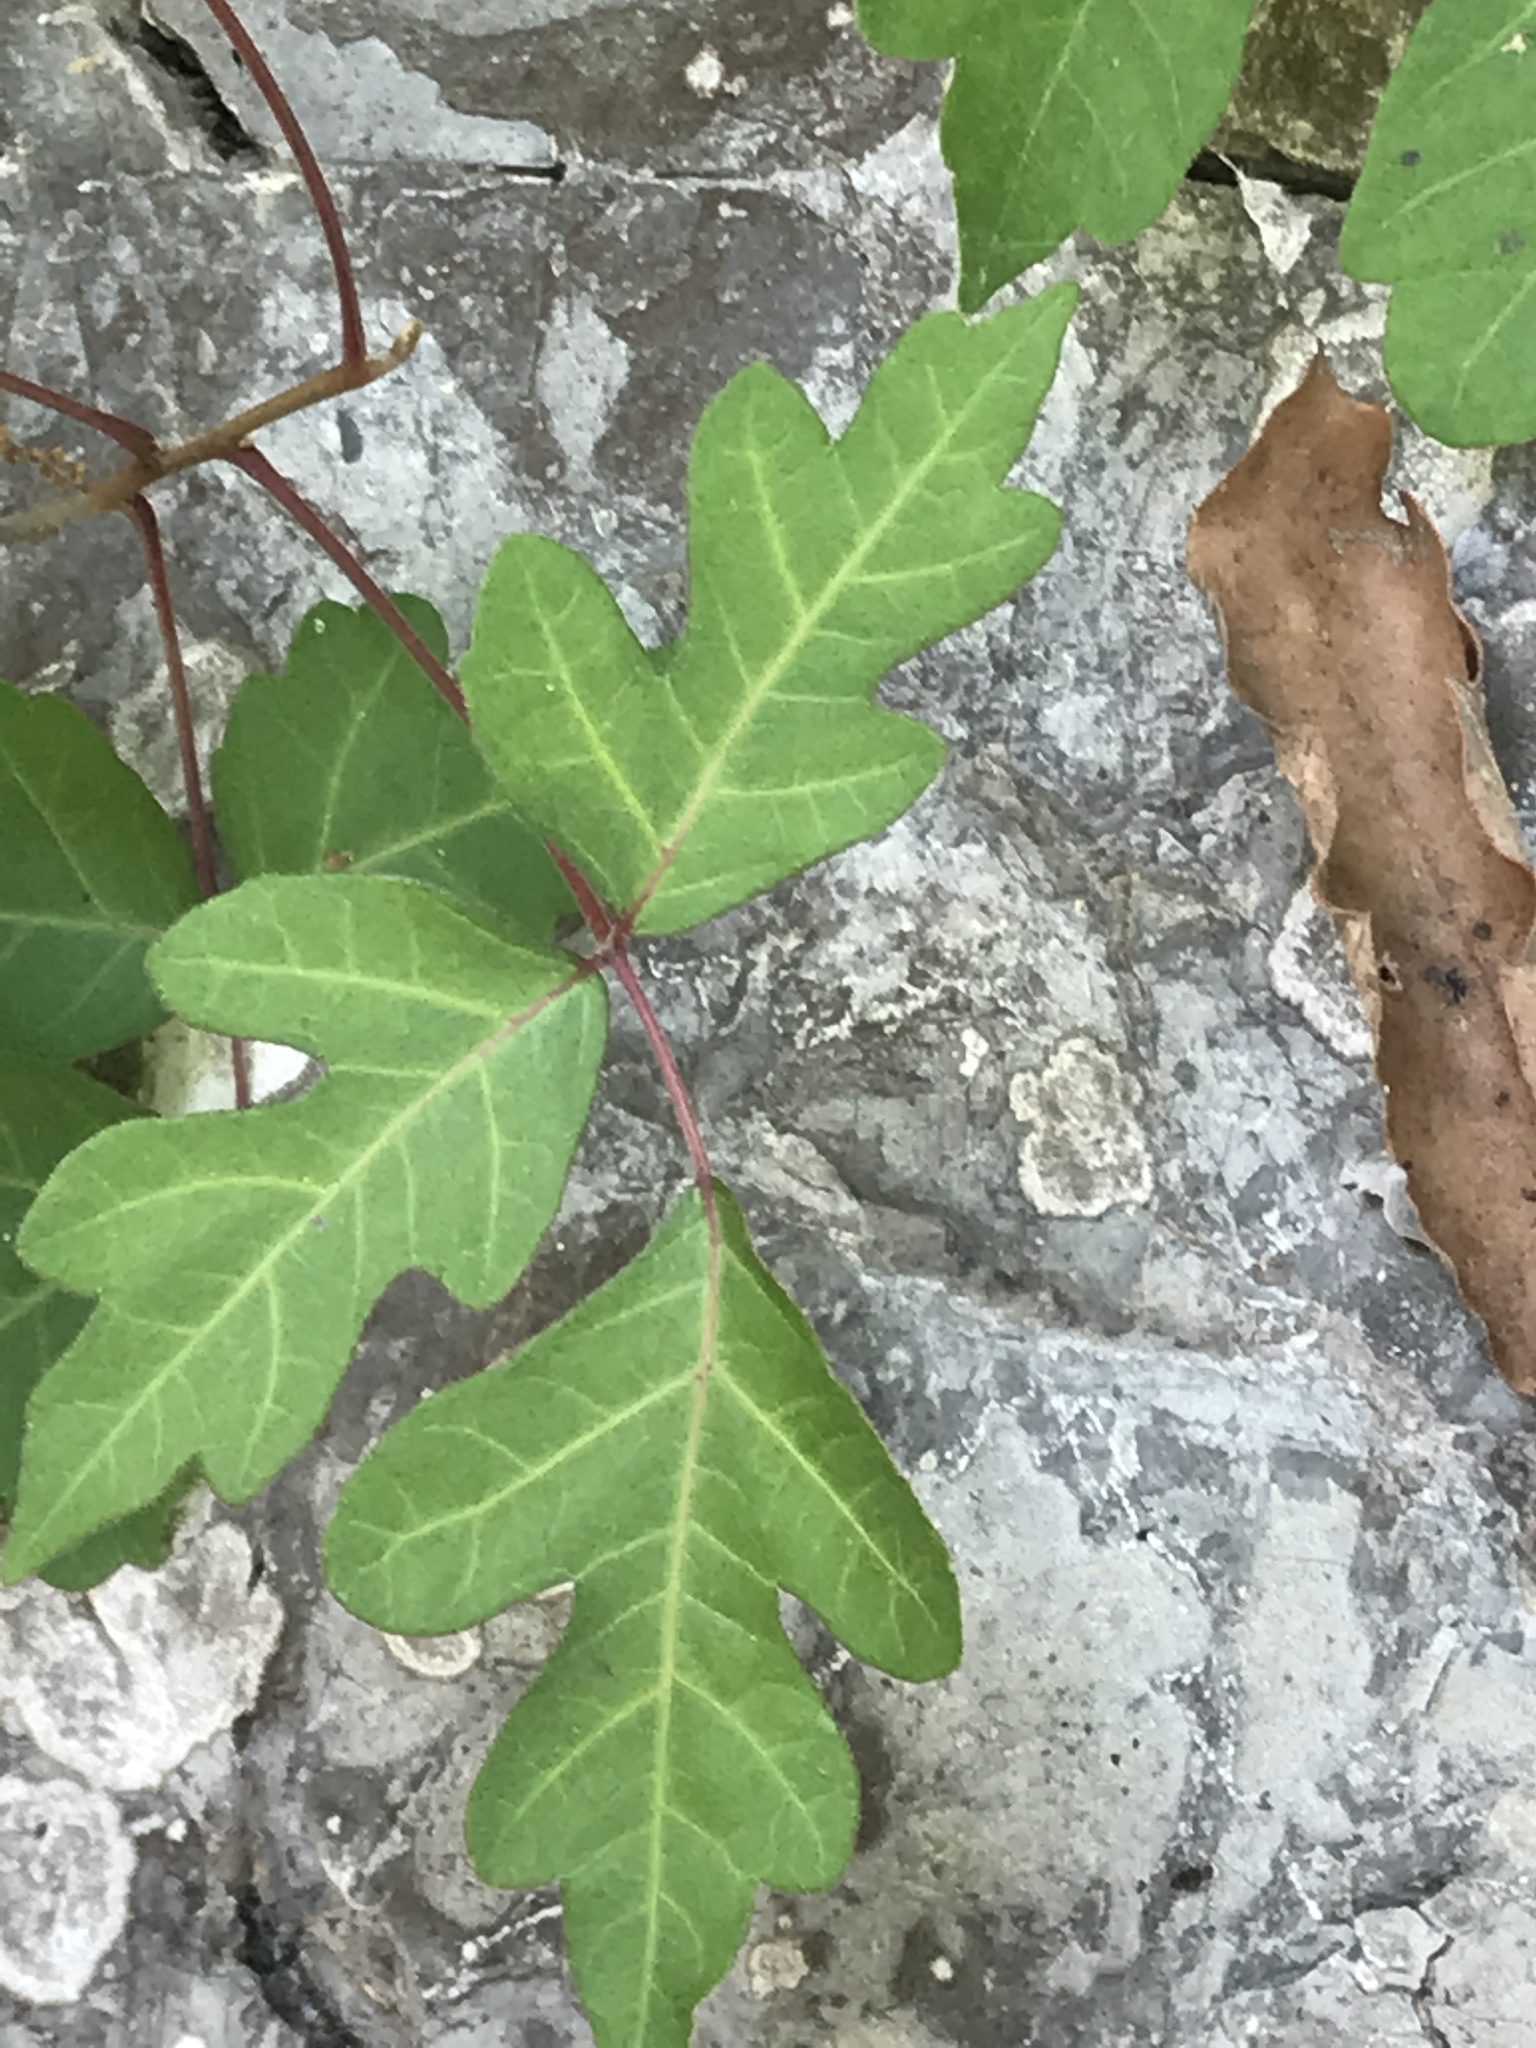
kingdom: Plantae
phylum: Tracheophyta
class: Magnoliopsida
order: Sapindales
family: Anacardiaceae
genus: Toxicodendron
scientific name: Toxicodendron radicans
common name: Poison ivy
